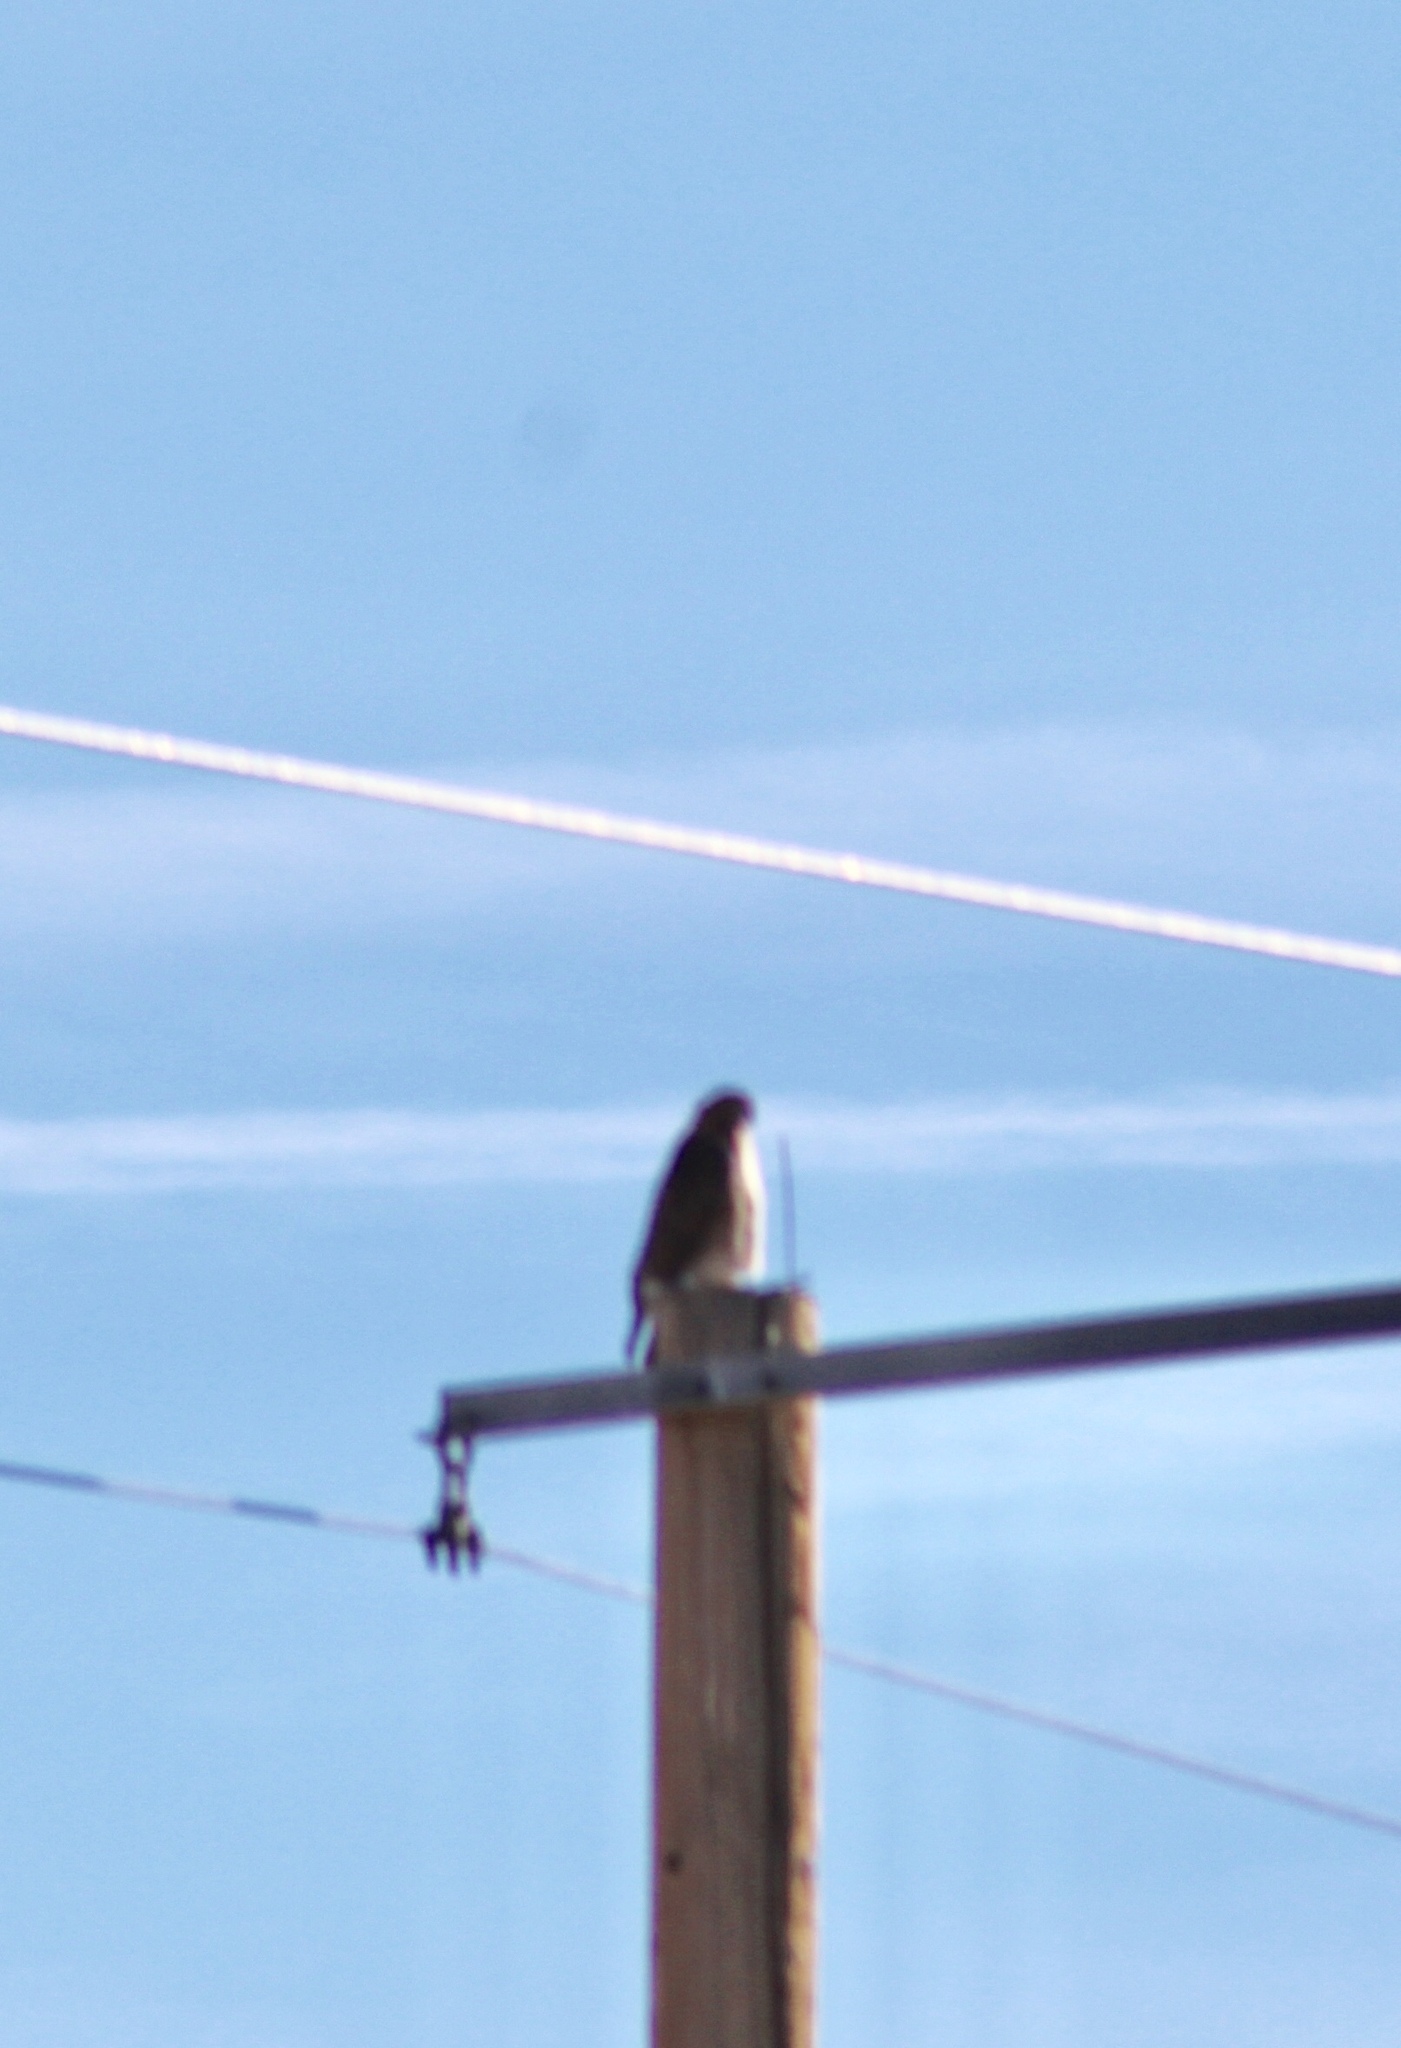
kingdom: Animalia
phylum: Chordata
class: Aves
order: Accipitriformes
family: Accipitridae
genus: Buteo
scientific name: Buteo jamaicensis
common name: Red-tailed hawk
